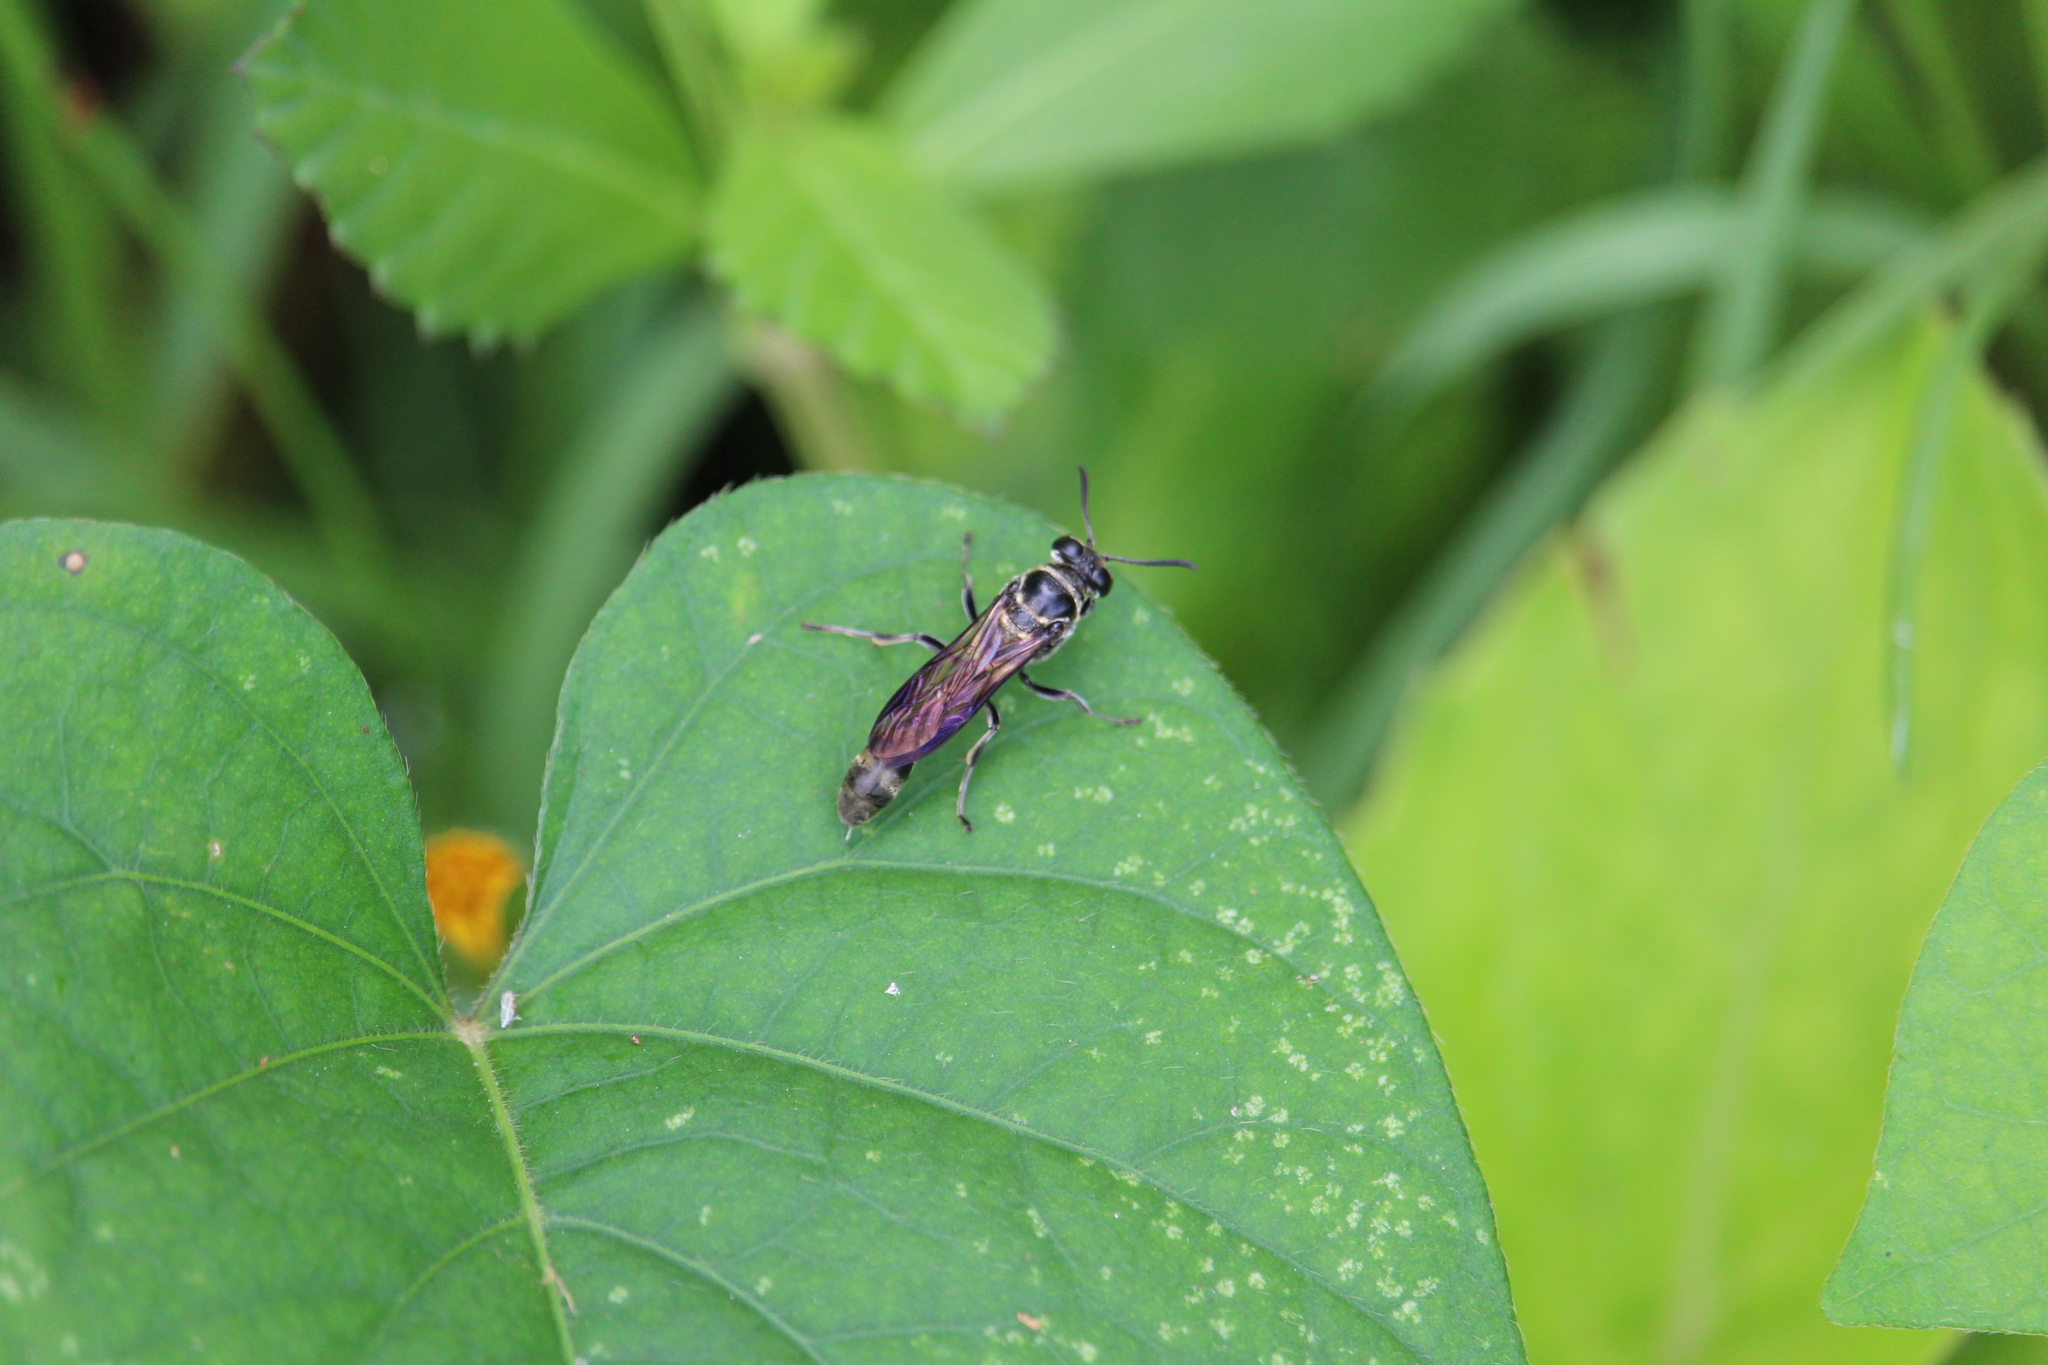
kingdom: Animalia
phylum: Arthropoda
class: Insecta
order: Hymenoptera
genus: Trypargilum
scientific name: Trypargilum
